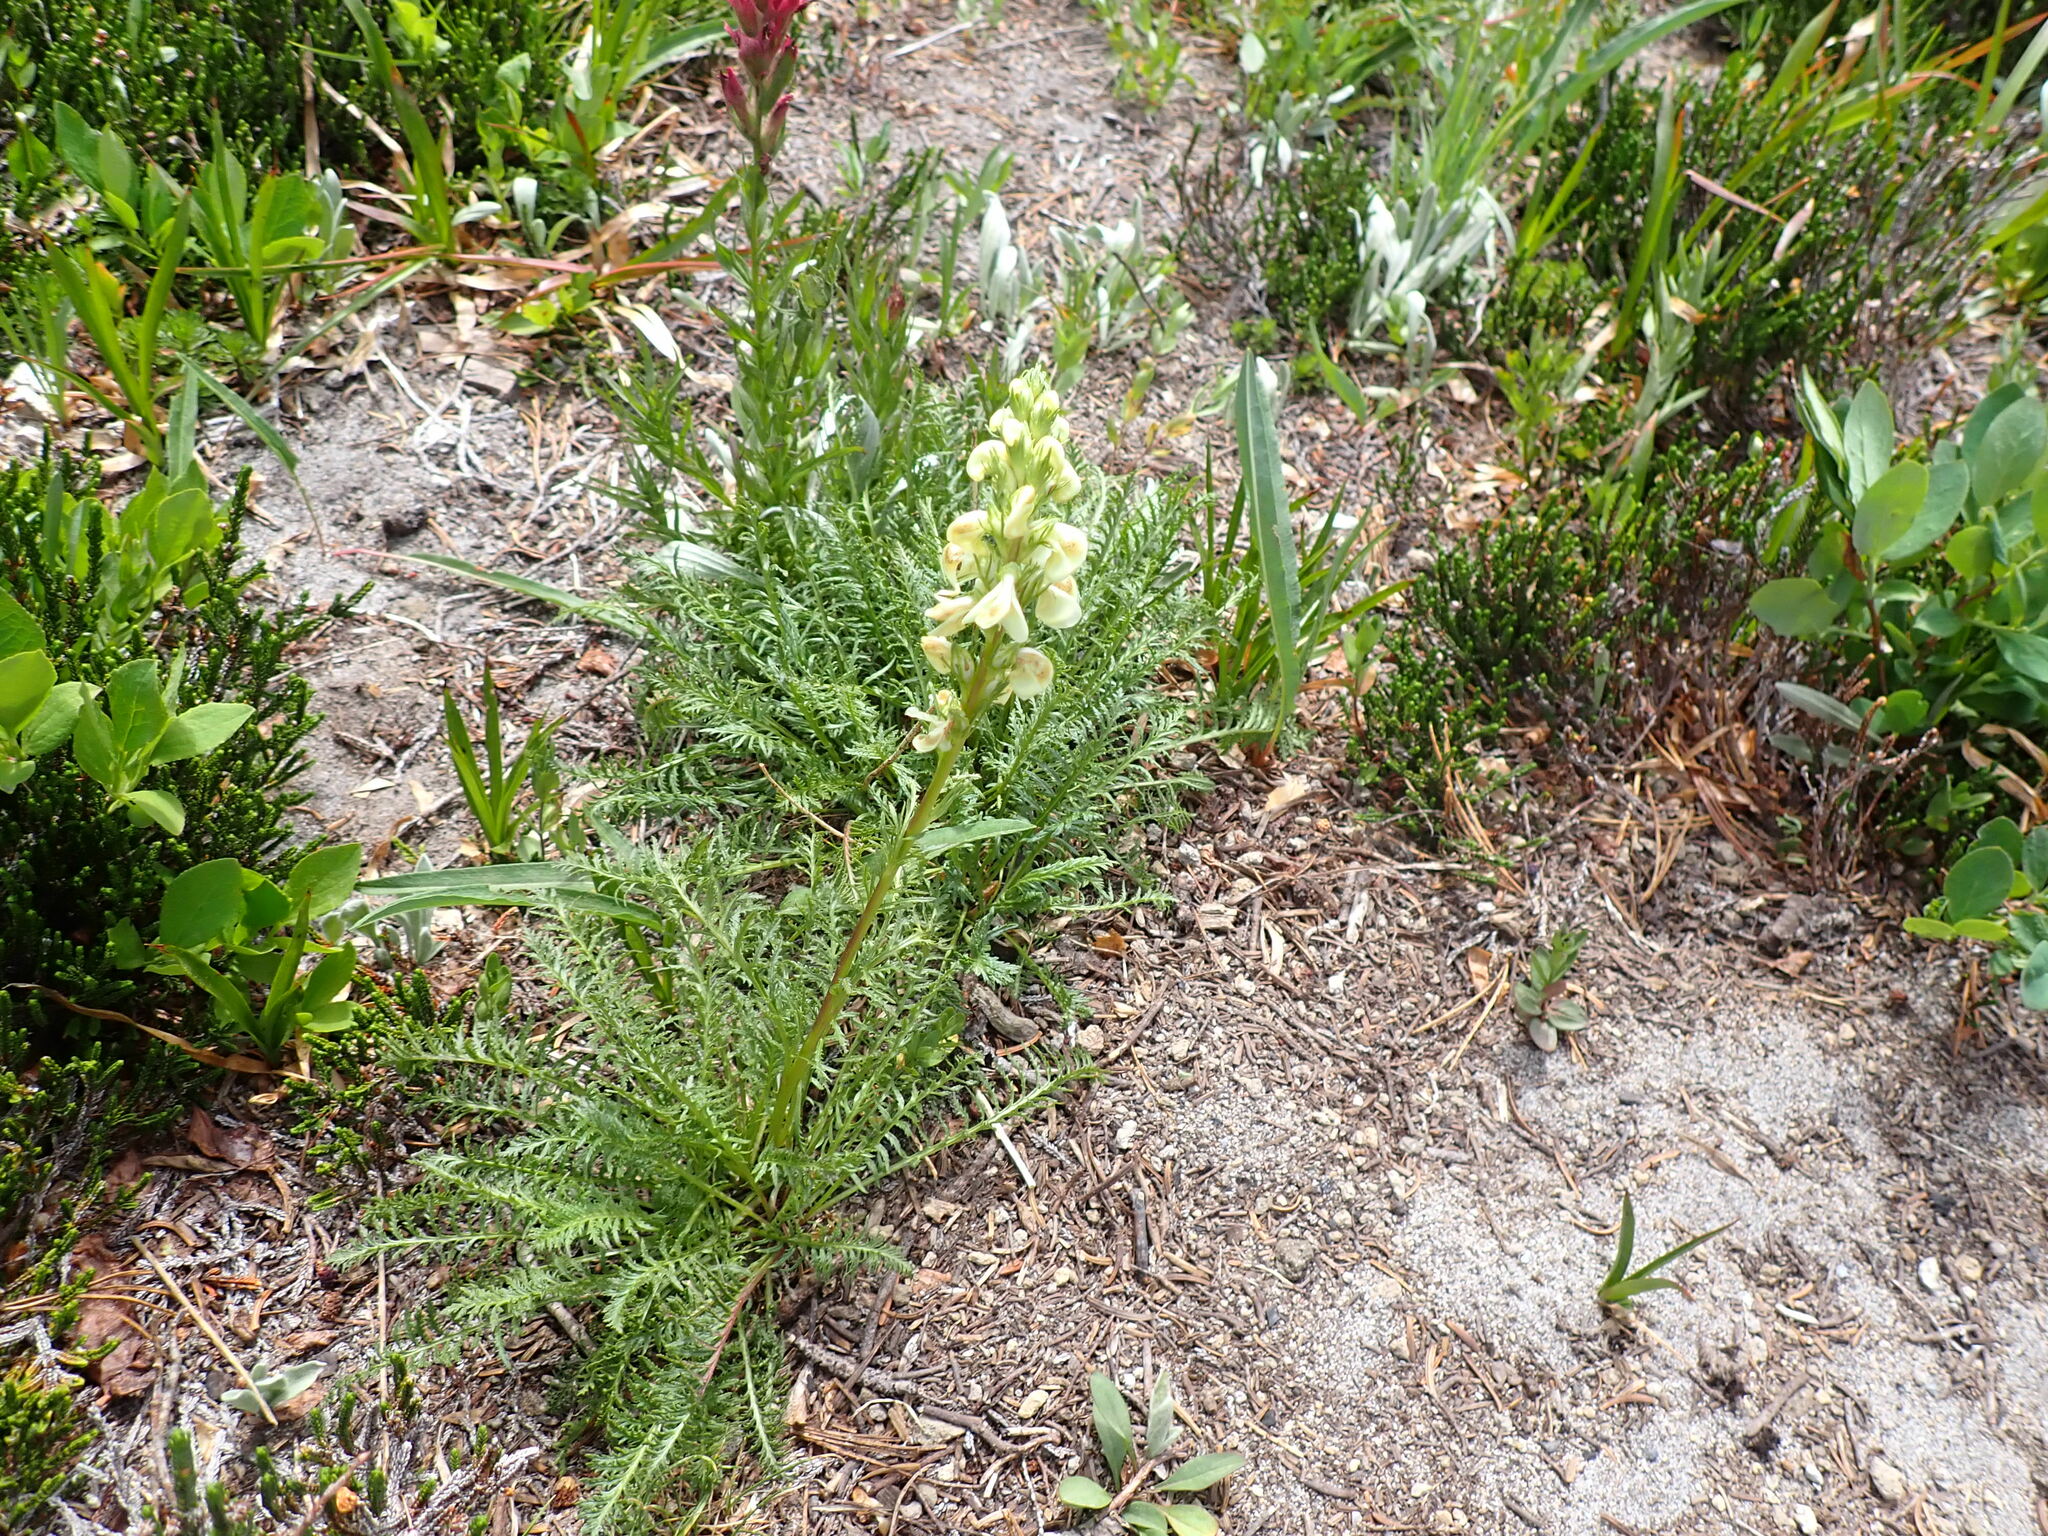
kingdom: Plantae
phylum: Tracheophyta
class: Magnoliopsida
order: Lamiales
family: Orobanchaceae
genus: Pedicularis
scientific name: Pedicularis contorta
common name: Coiled lousewort
